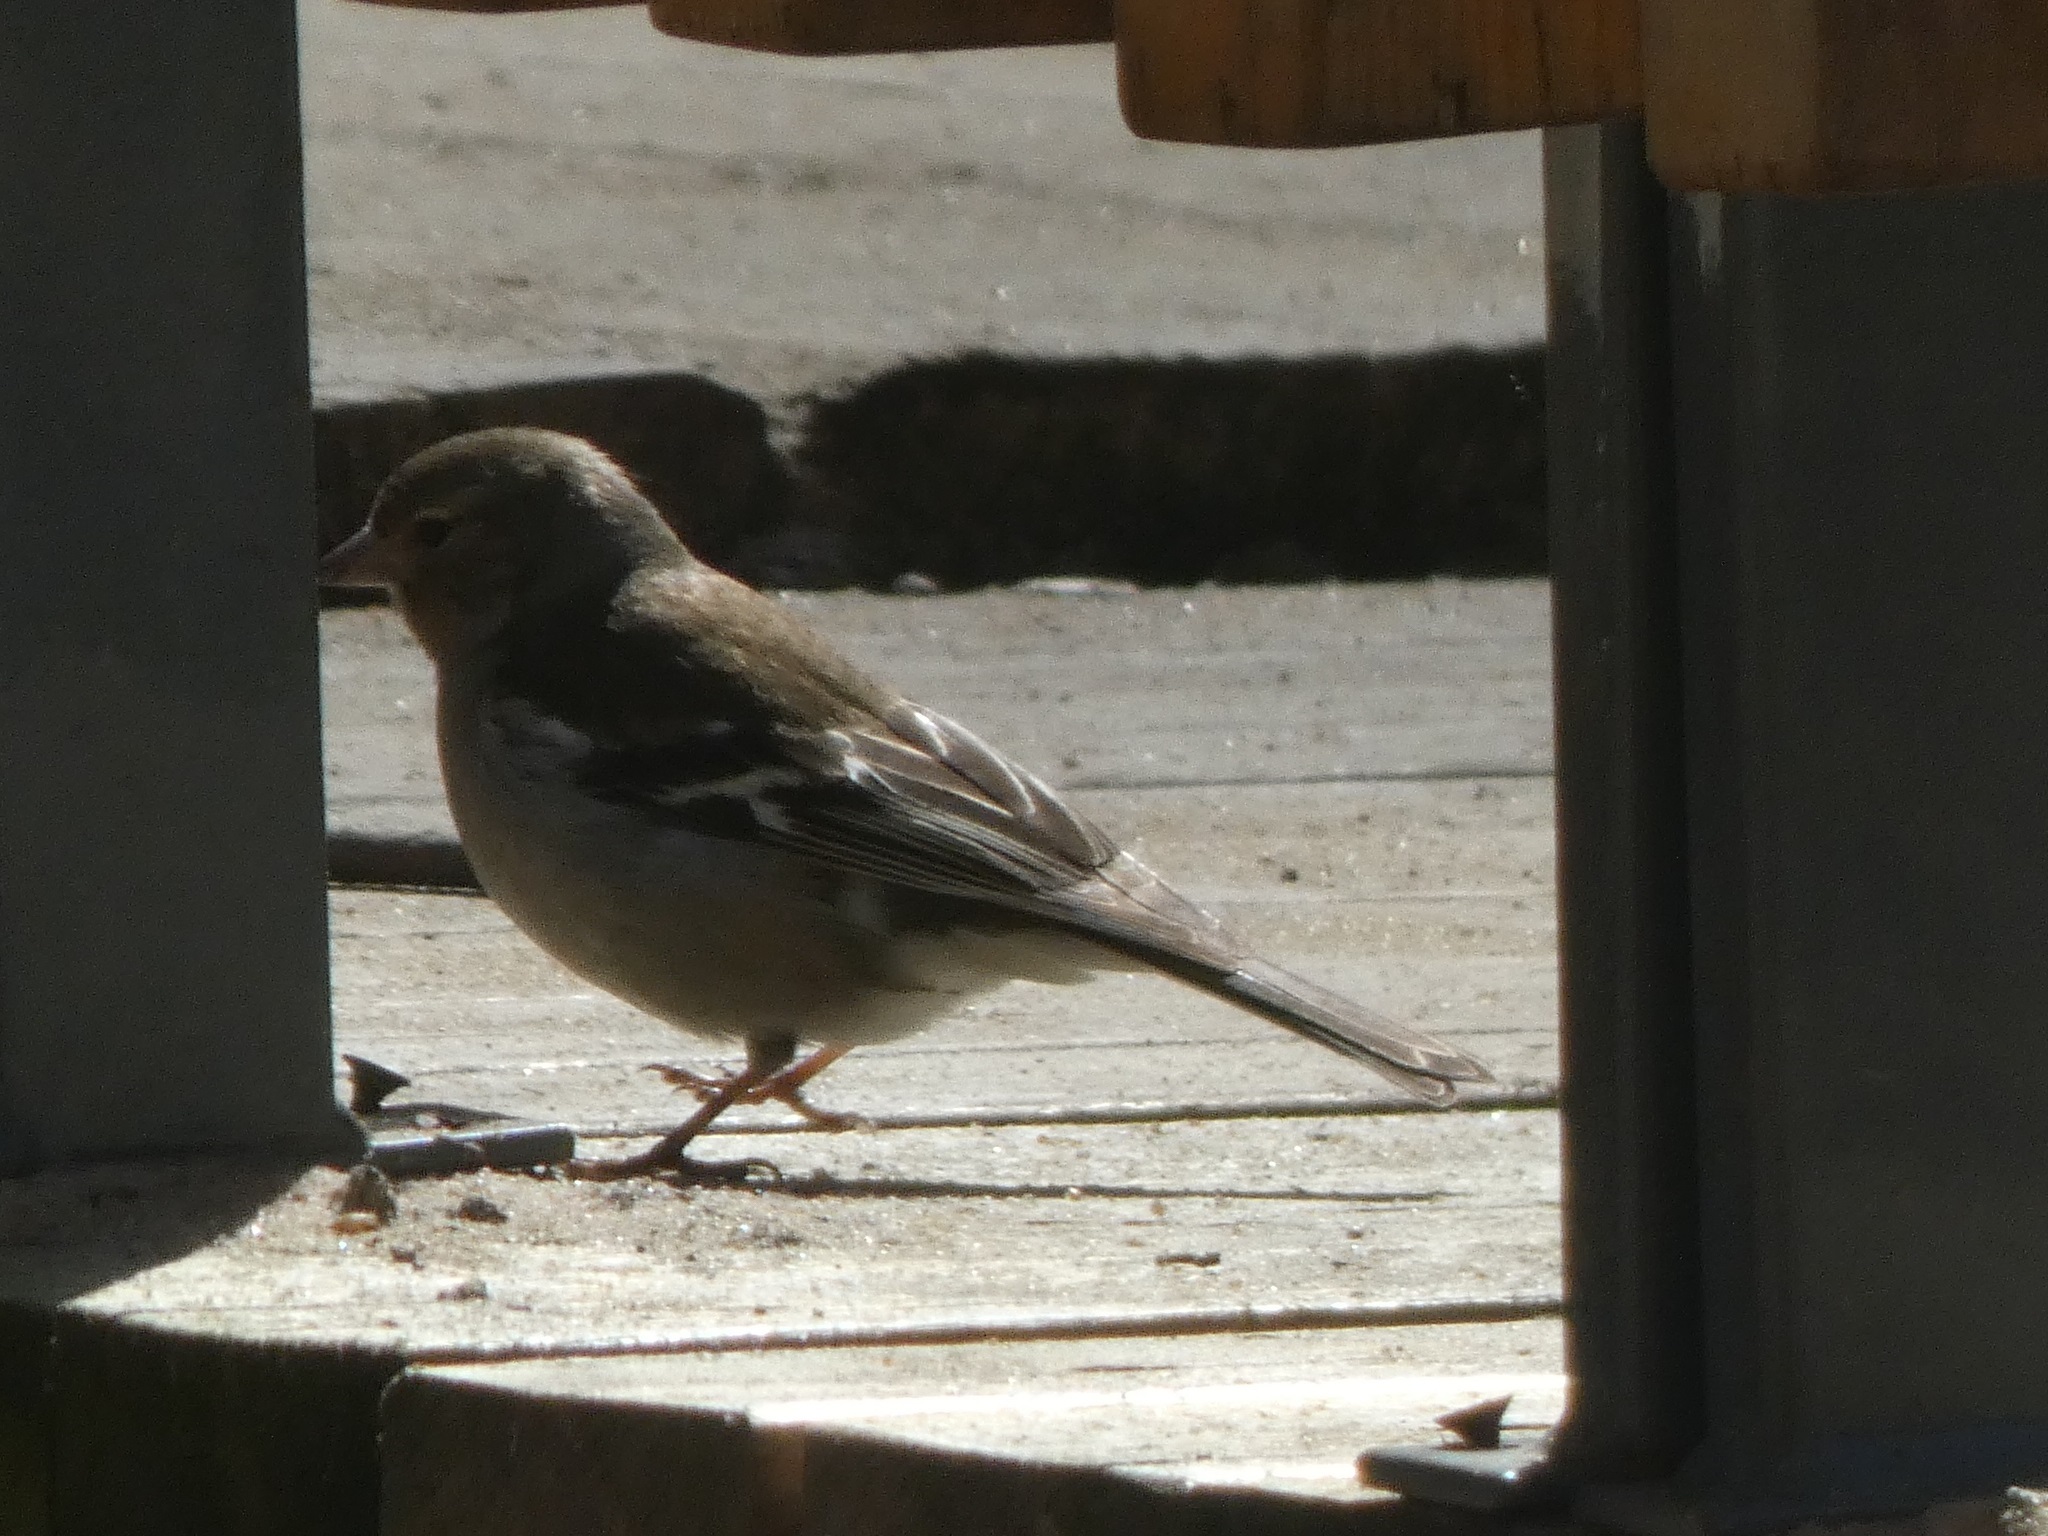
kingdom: Animalia
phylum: Chordata
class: Aves
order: Passeriformes
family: Fringillidae
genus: Fringilla
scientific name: Fringilla coelebs
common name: Common chaffinch
